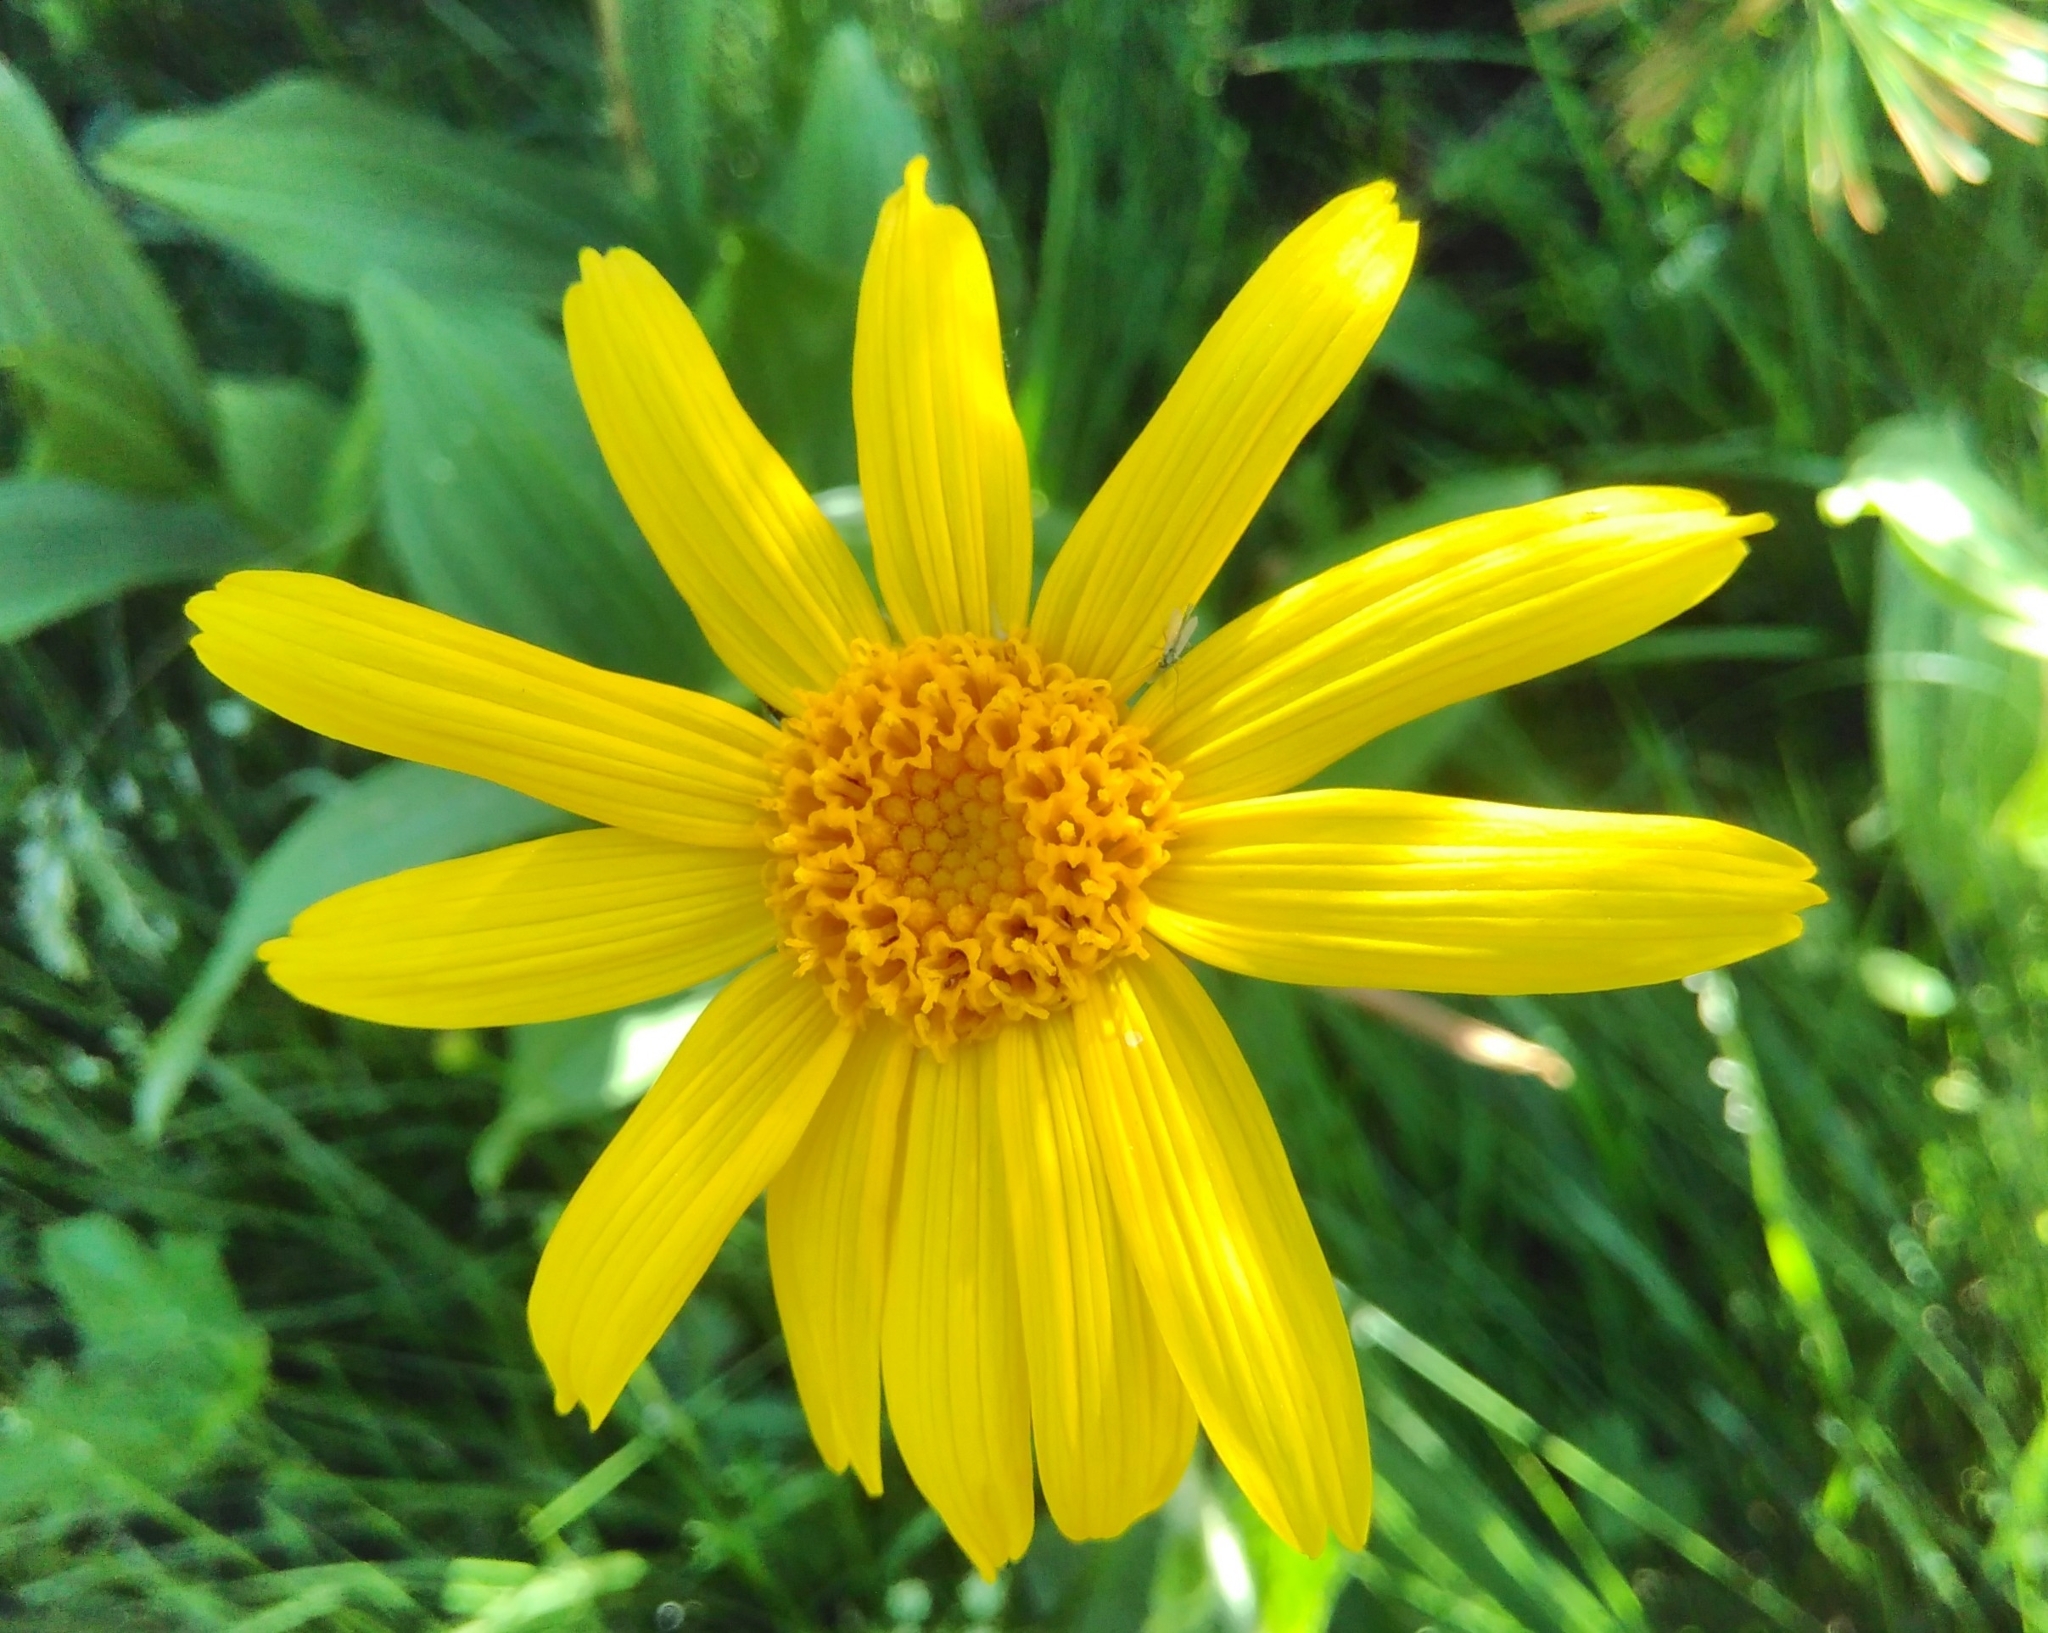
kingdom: Plantae
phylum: Tracheophyta
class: Magnoliopsida
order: Asterales
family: Asteraceae
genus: Arnica
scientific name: Arnica montana
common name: Leopard's bane
